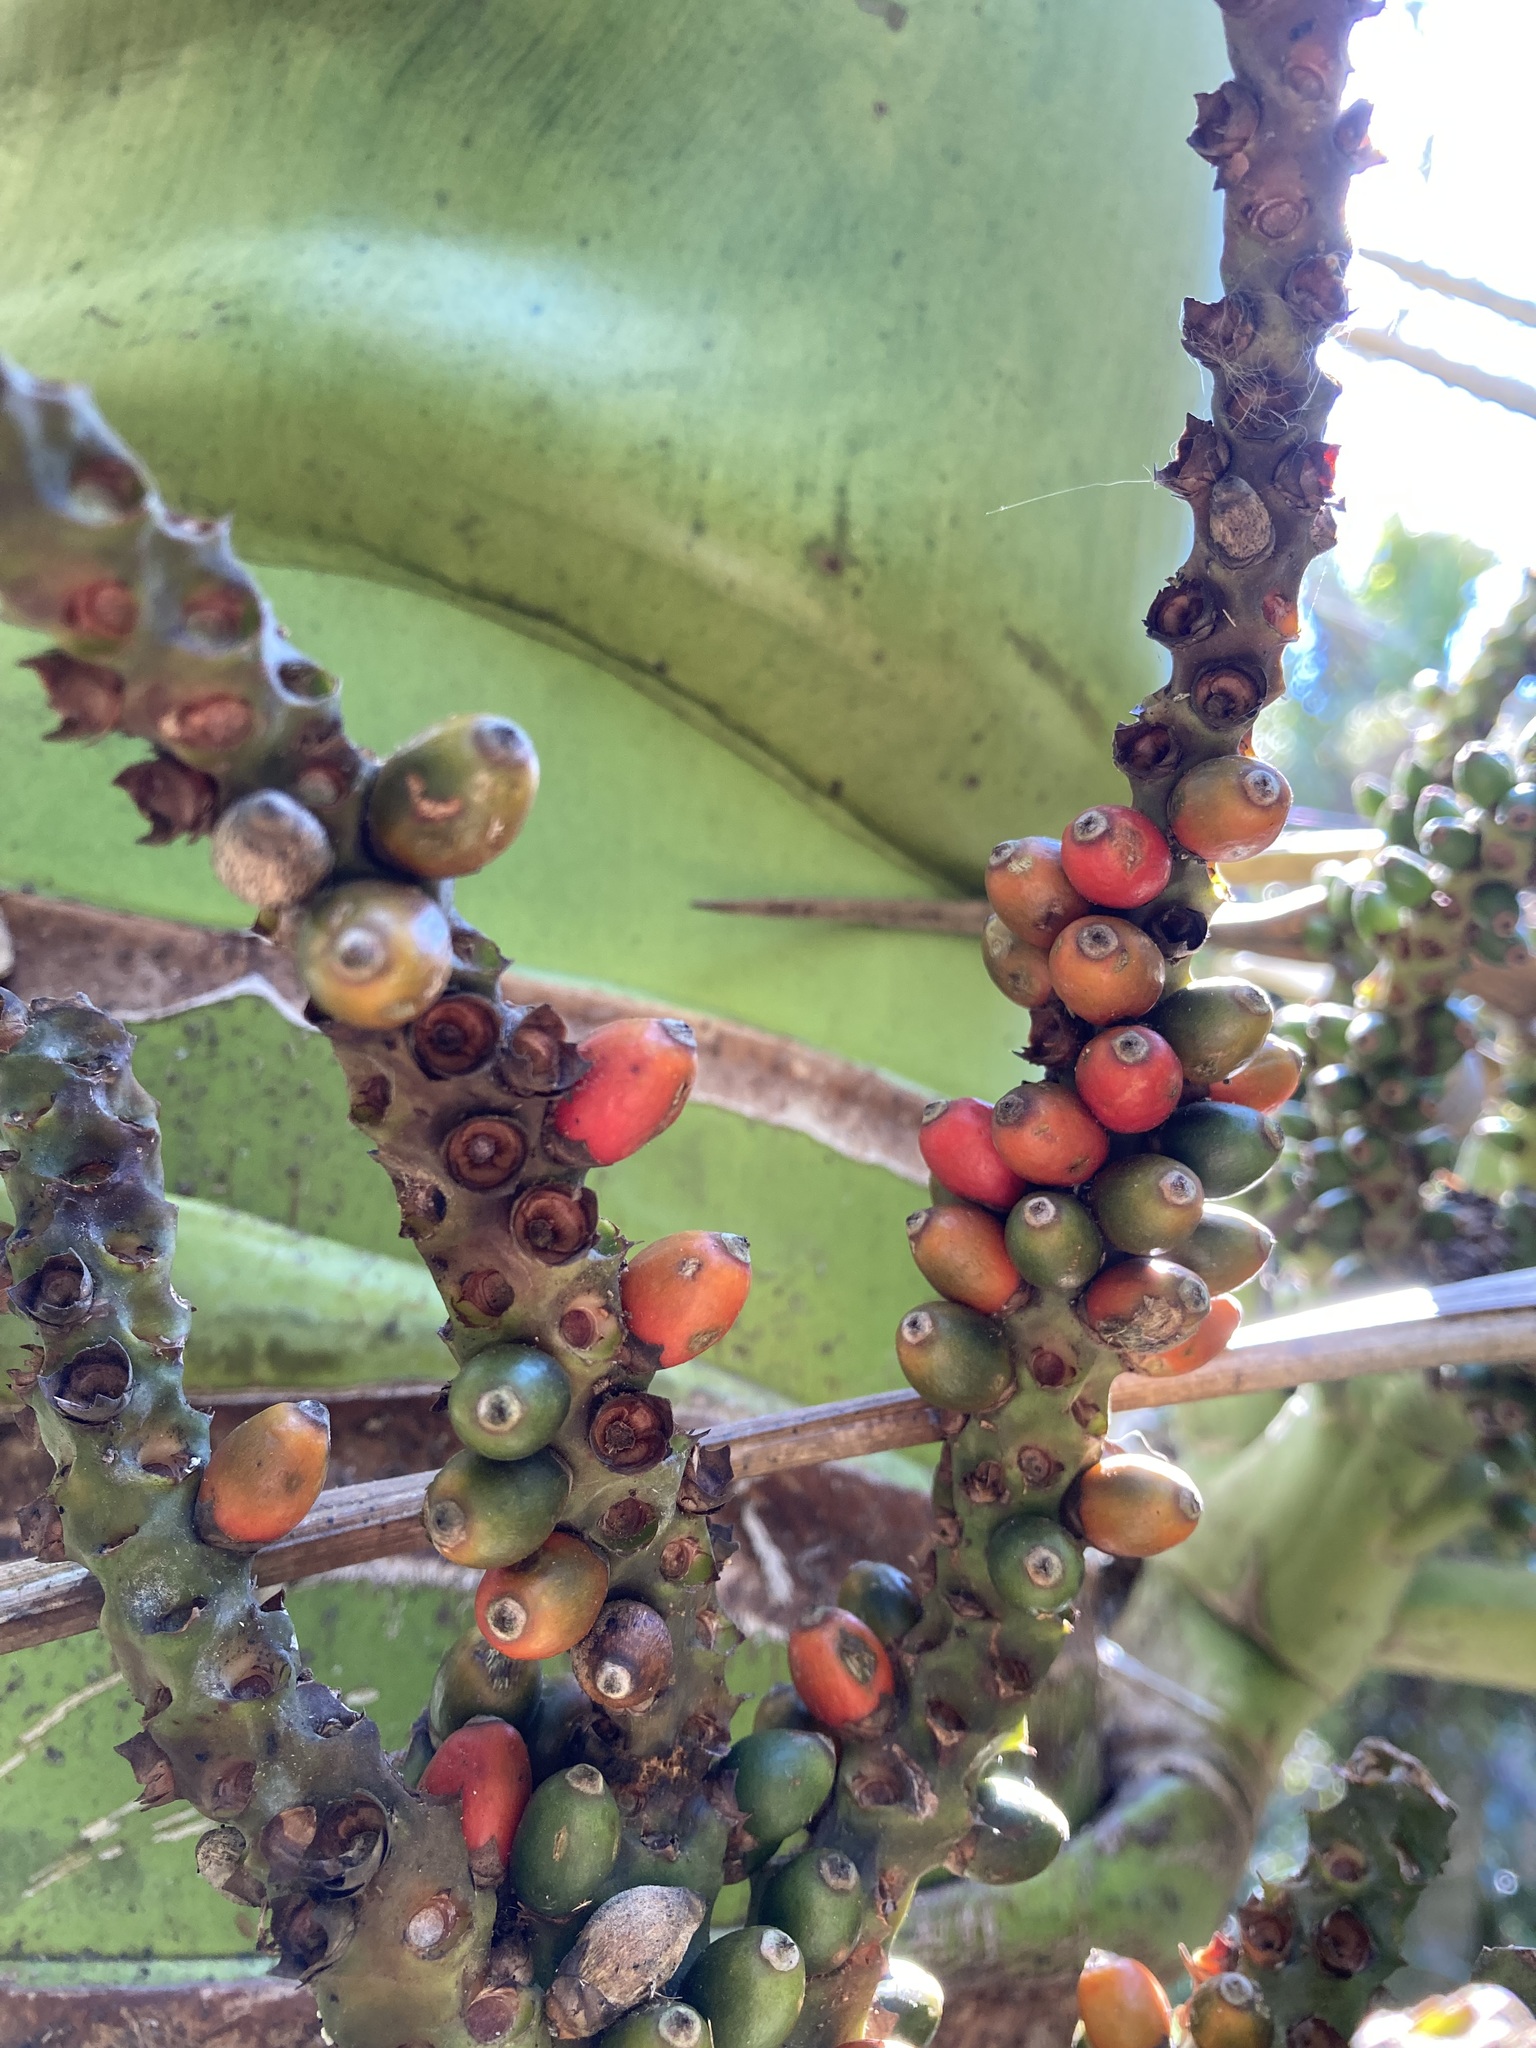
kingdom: Plantae
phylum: Tracheophyta
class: Liliopsida
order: Arecales
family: Arecaceae
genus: Rhopalostylis
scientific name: Rhopalostylis sapida
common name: Feather-duster palm
